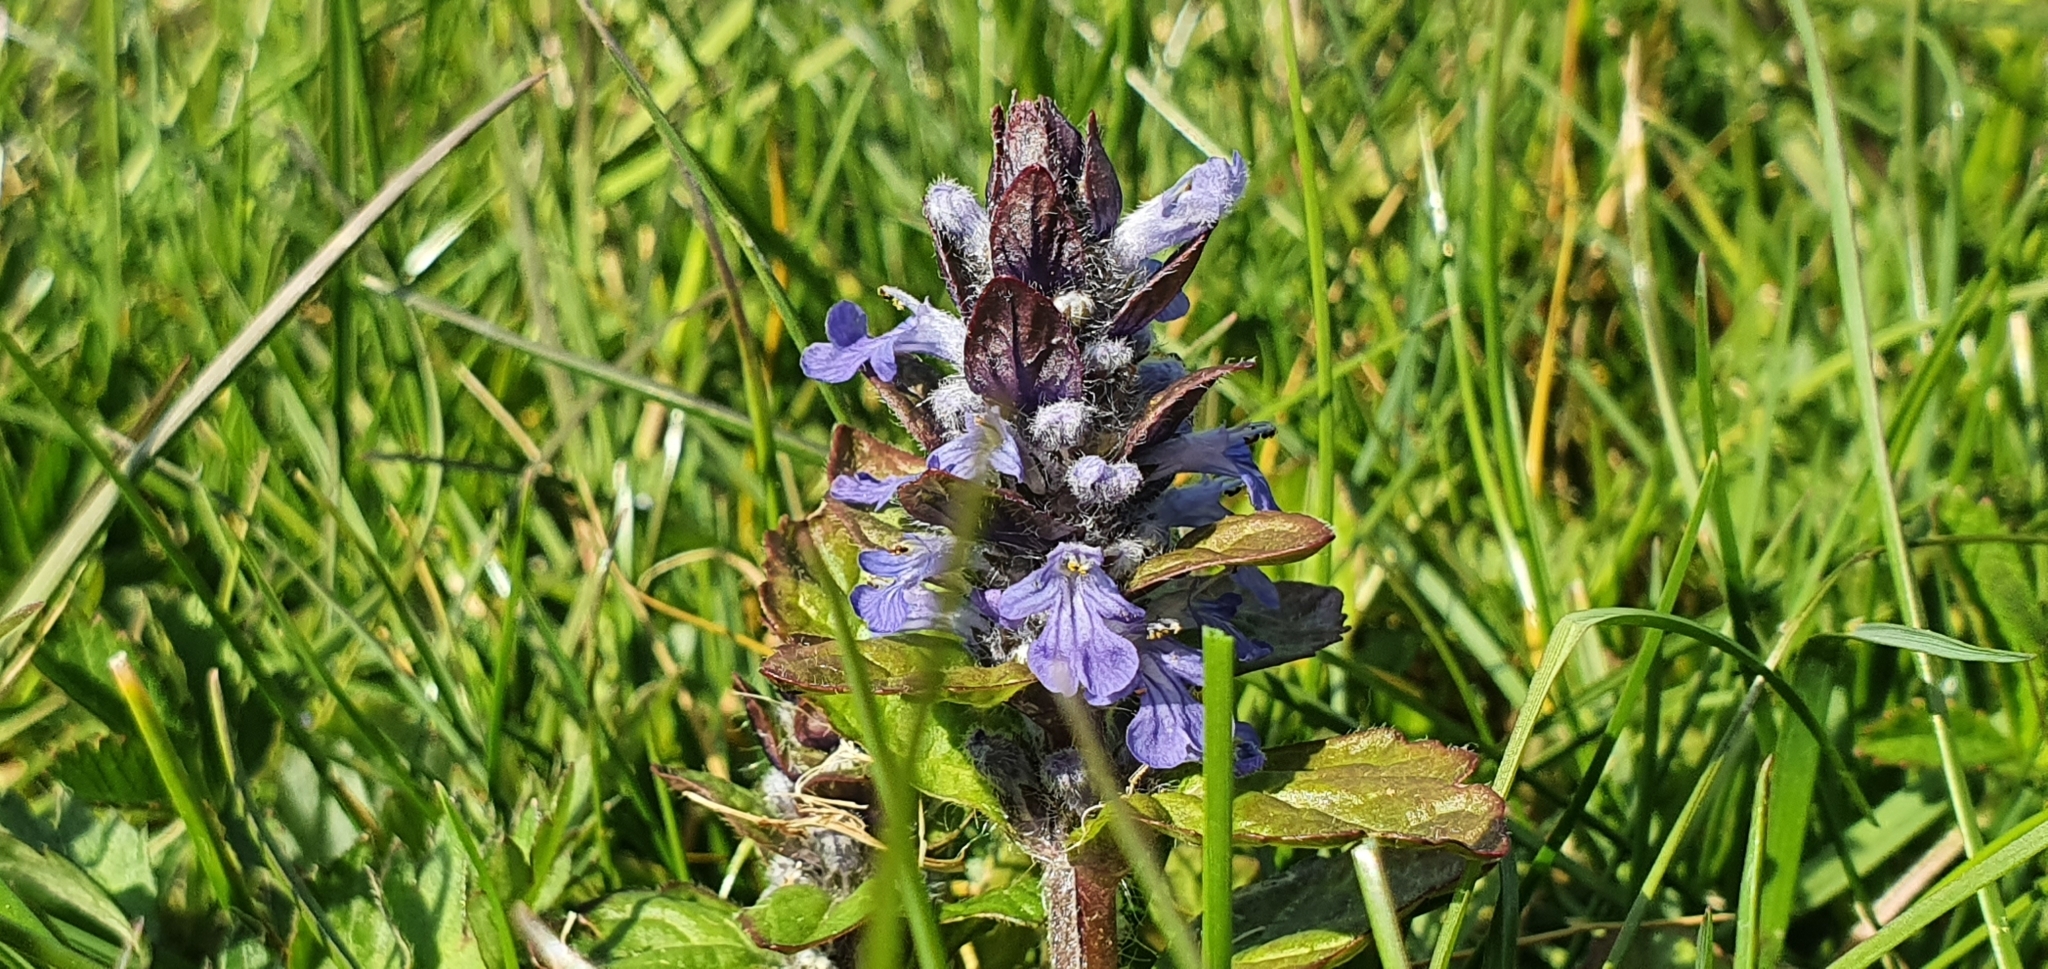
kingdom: Plantae
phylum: Tracheophyta
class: Magnoliopsida
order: Lamiales
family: Lamiaceae
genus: Ajuga
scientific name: Ajuga reptans
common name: Bugle
